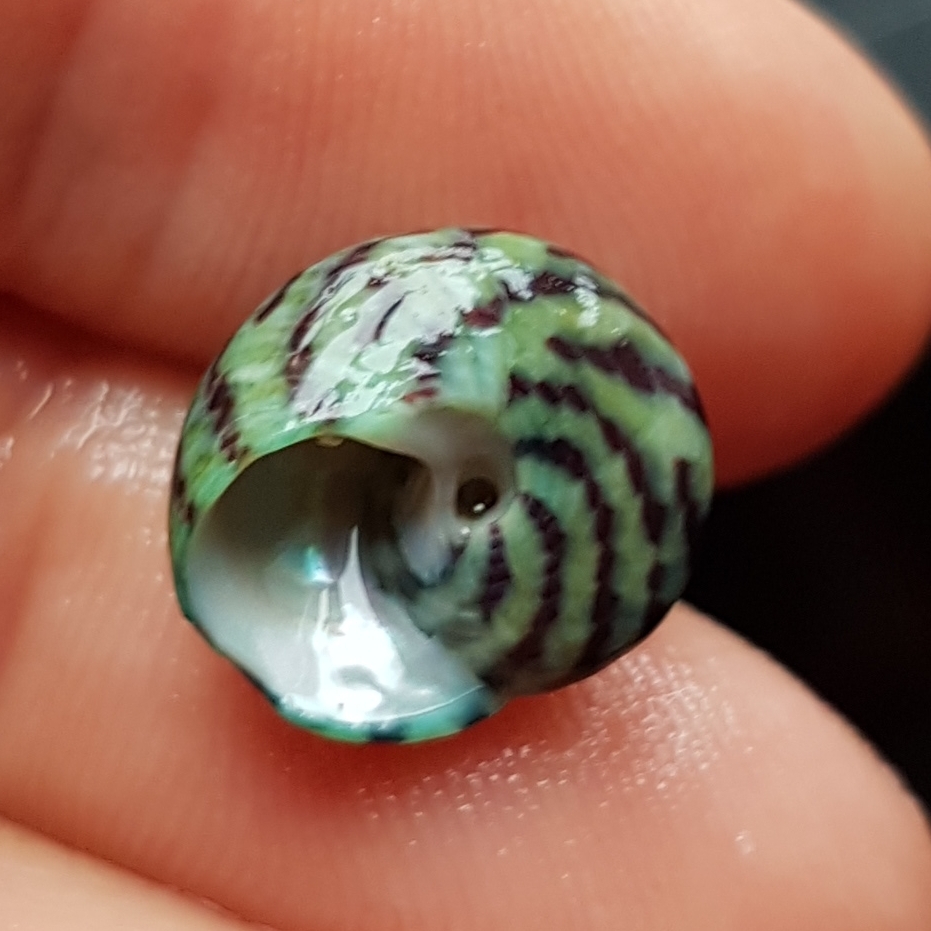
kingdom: Animalia
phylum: Mollusca
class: Gastropoda
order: Trochida
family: Trochidae
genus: Steromphala
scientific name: Steromphala umbilicalis
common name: Flat top shell
